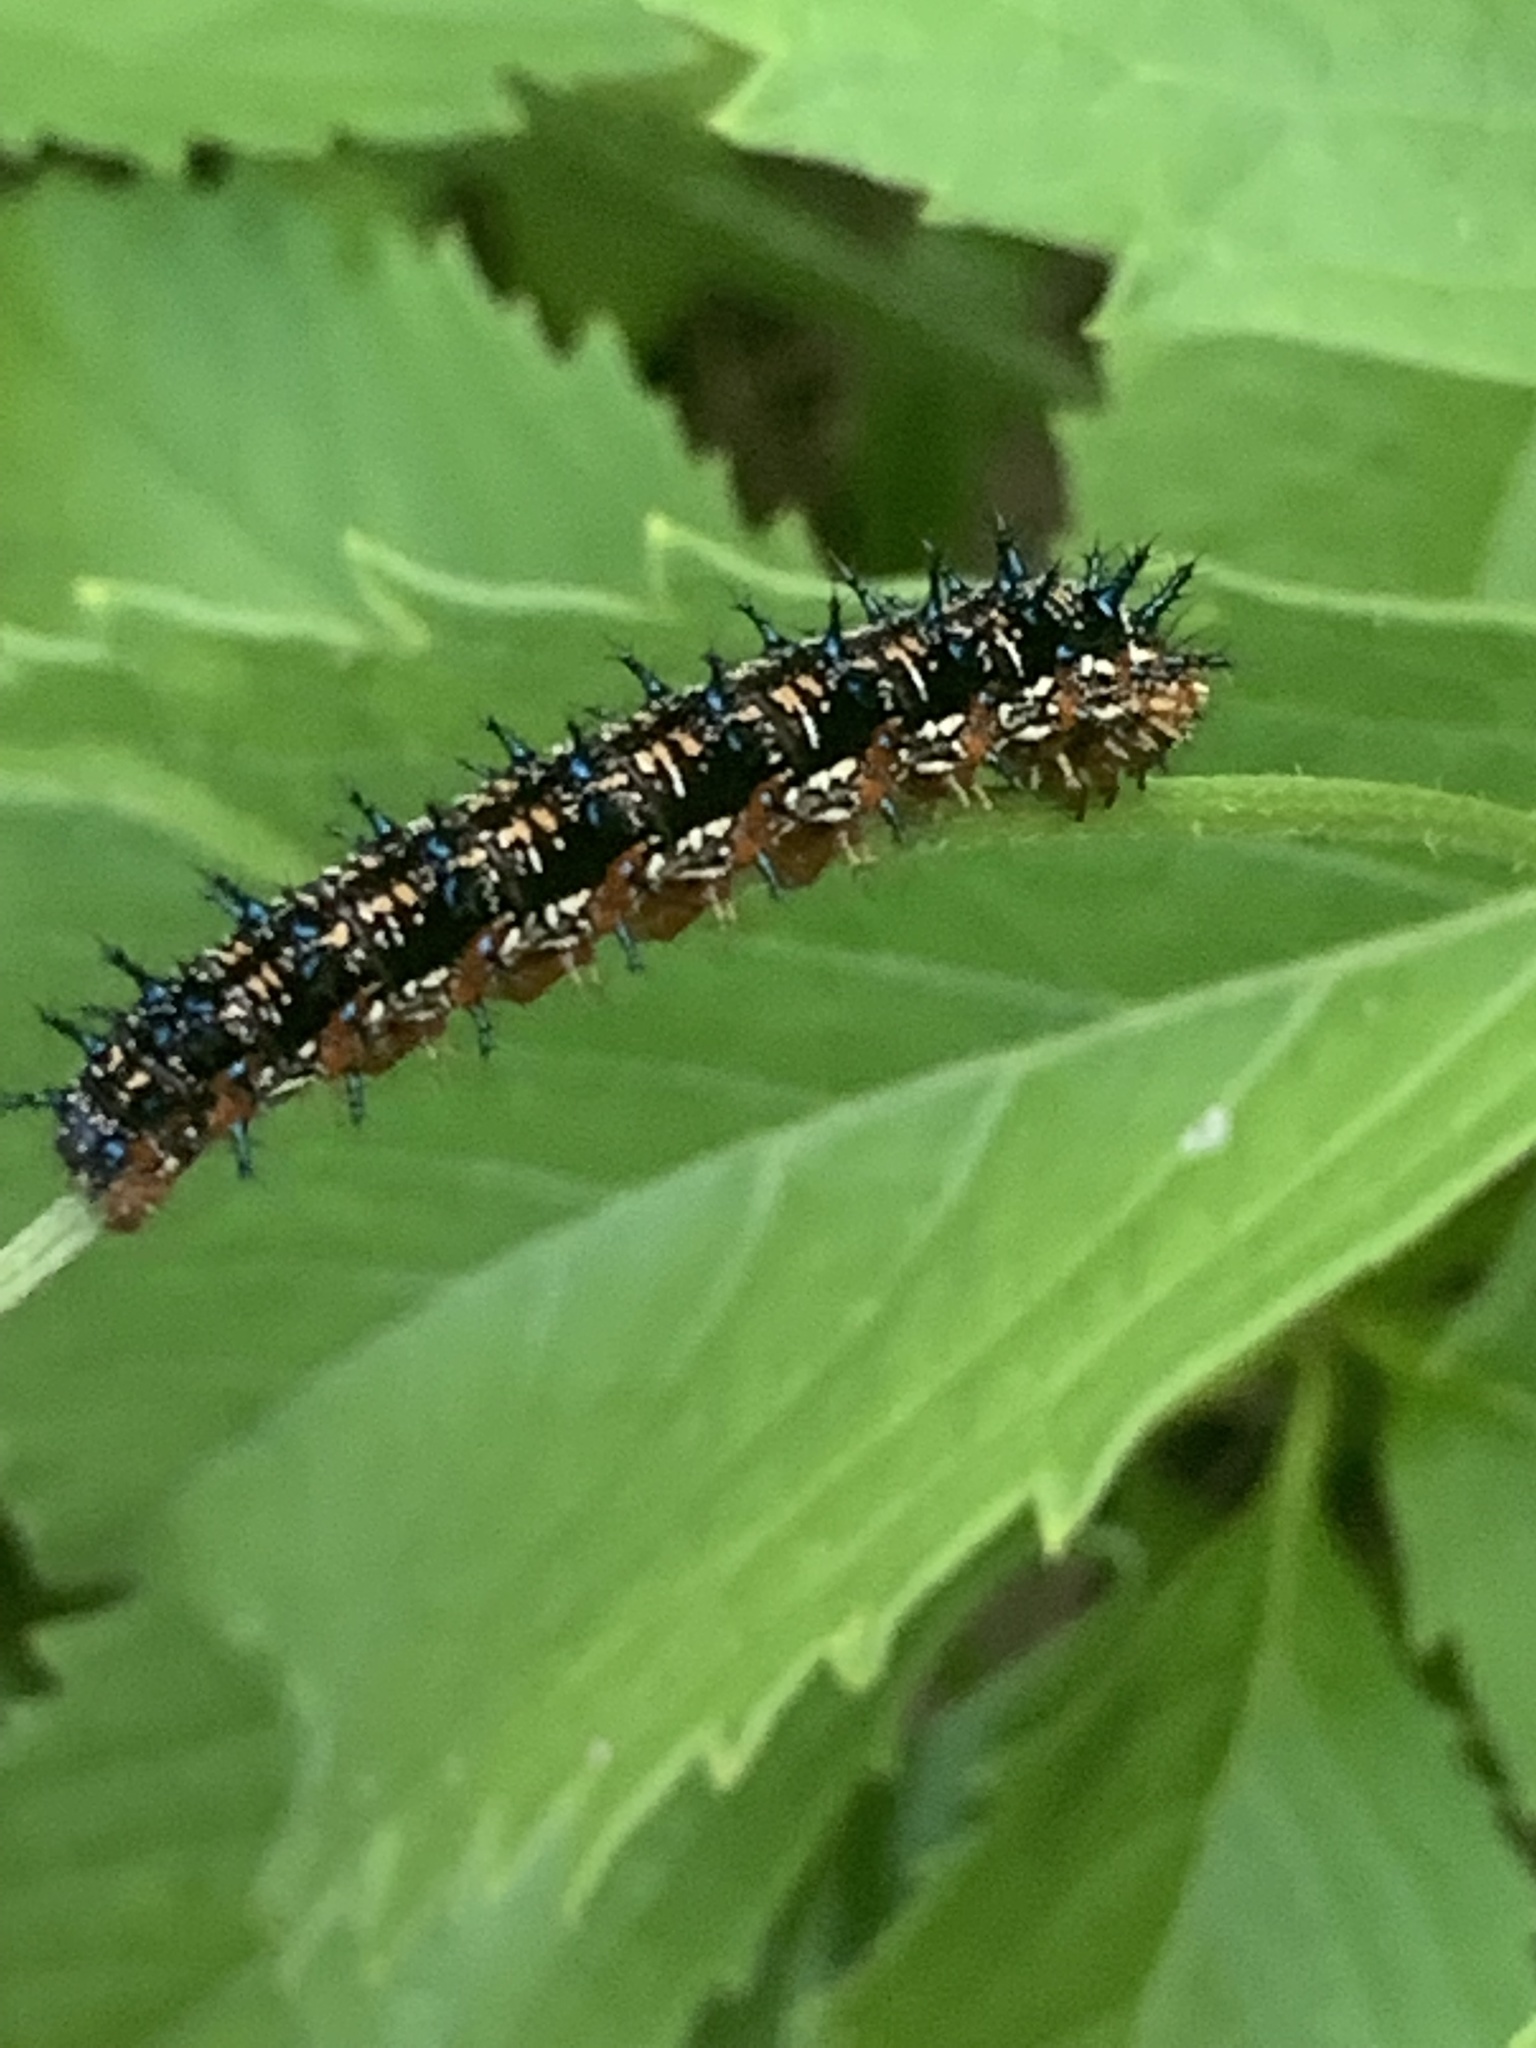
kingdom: Animalia
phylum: Arthropoda
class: Insecta
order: Lepidoptera
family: Nymphalidae
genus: Junonia
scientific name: Junonia coenia
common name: Common buckeye
